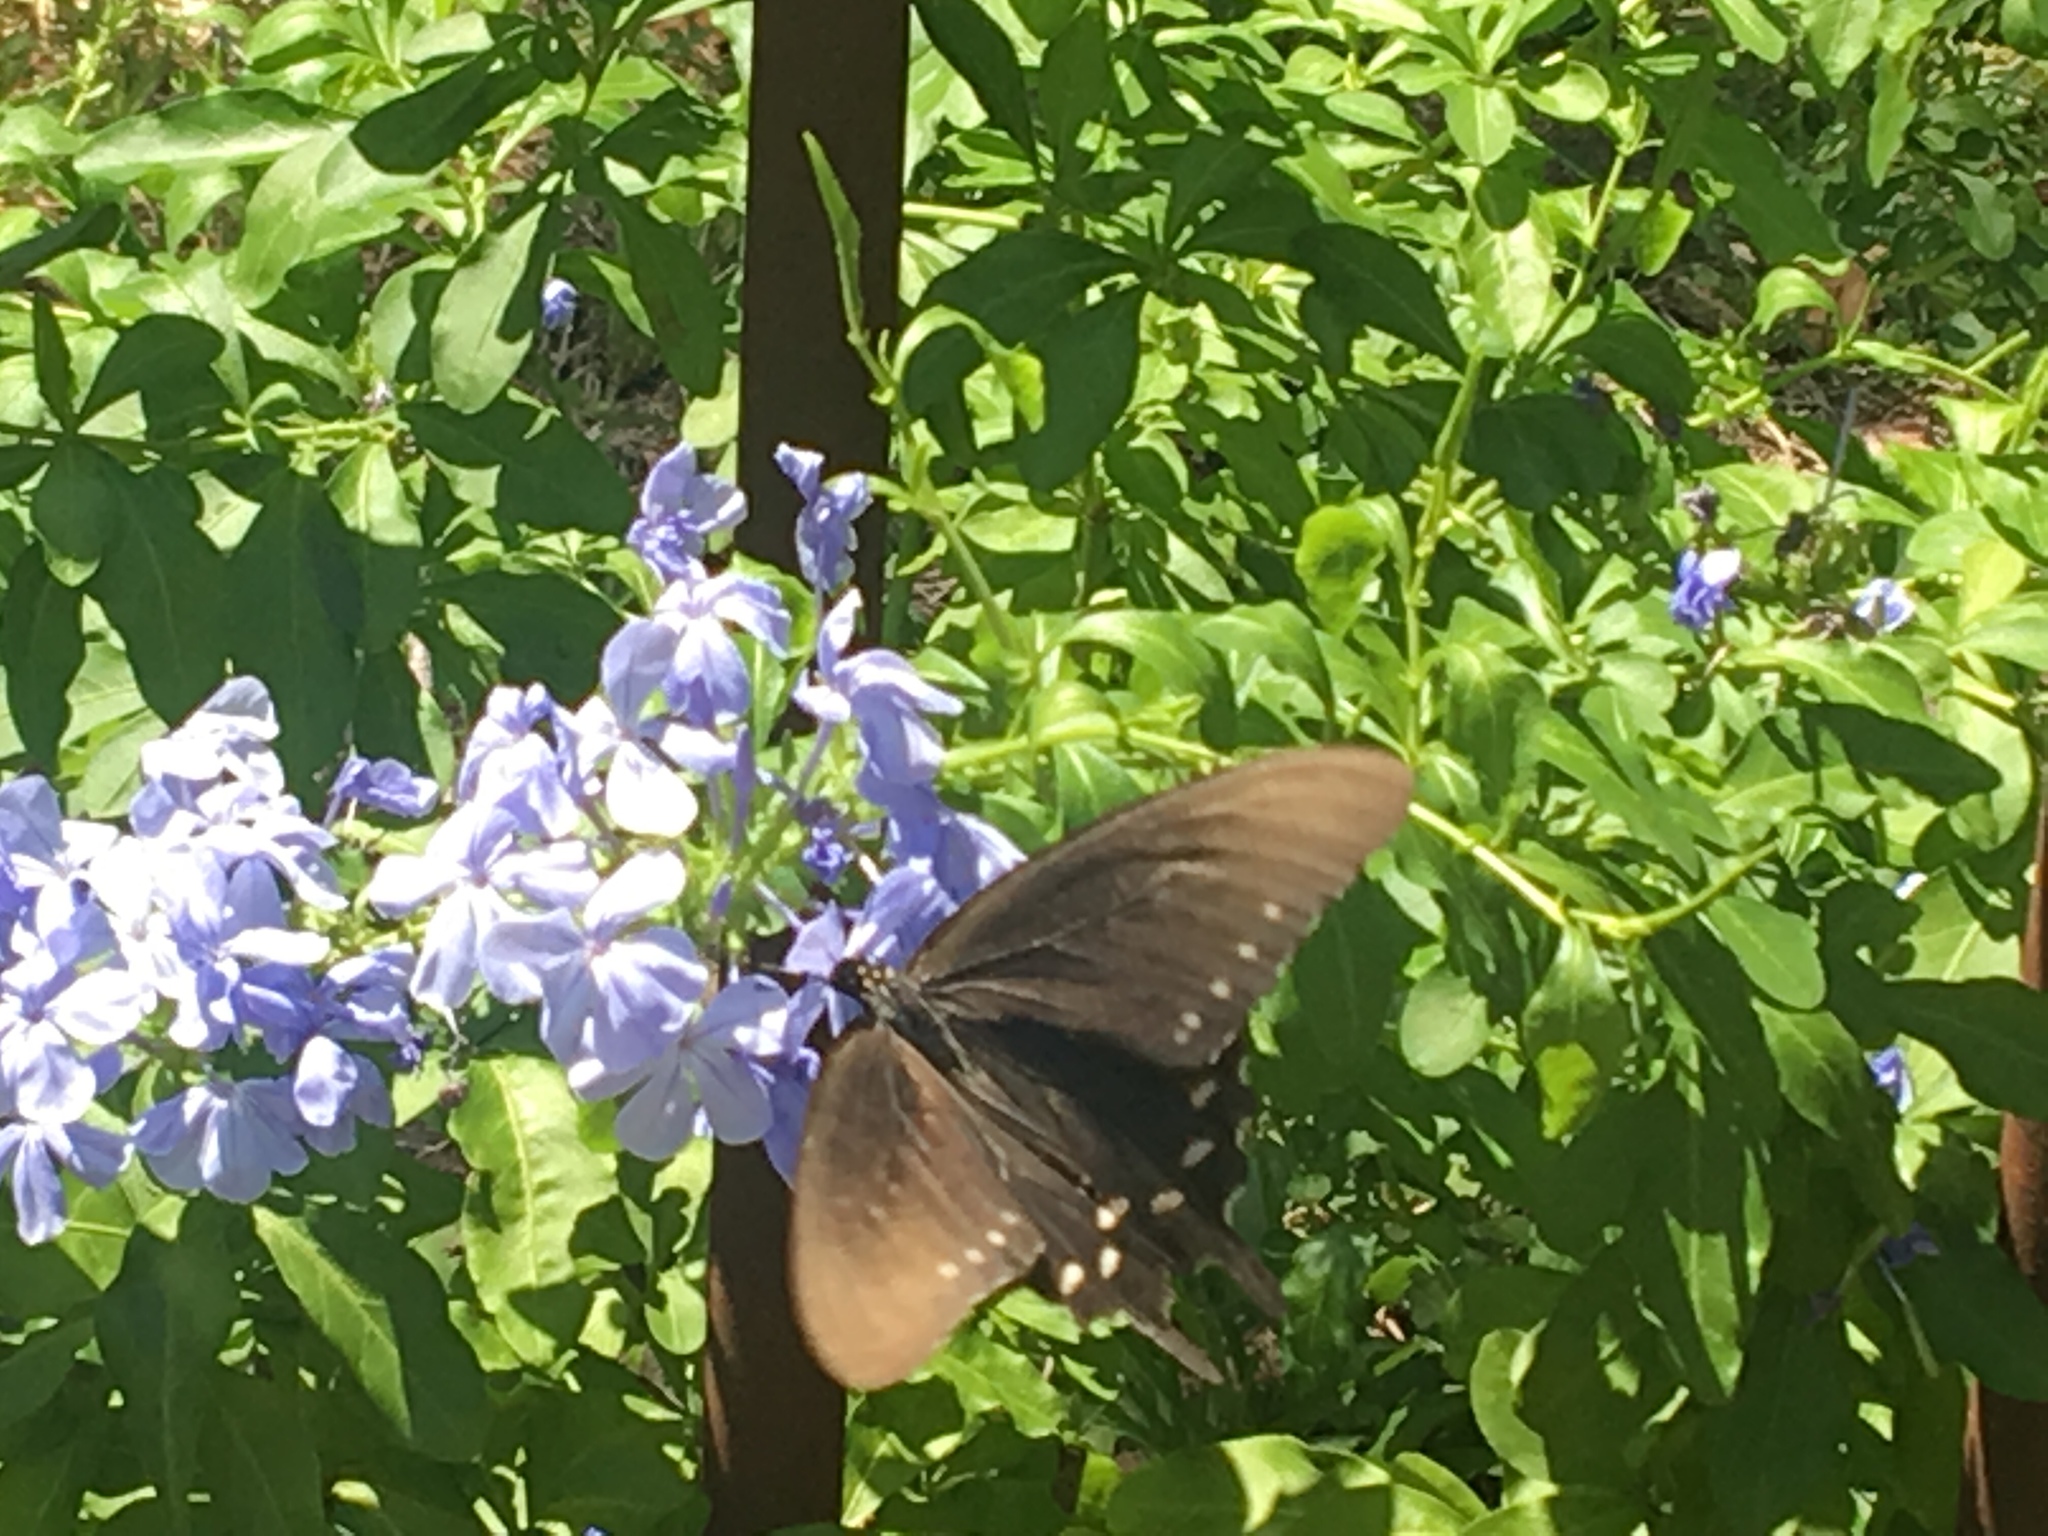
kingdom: Animalia
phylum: Arthropoda
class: Insecta
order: Lepidoptera
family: Papilionidae
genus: Battus
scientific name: Battus philenor
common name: Pipevine swallowtail
